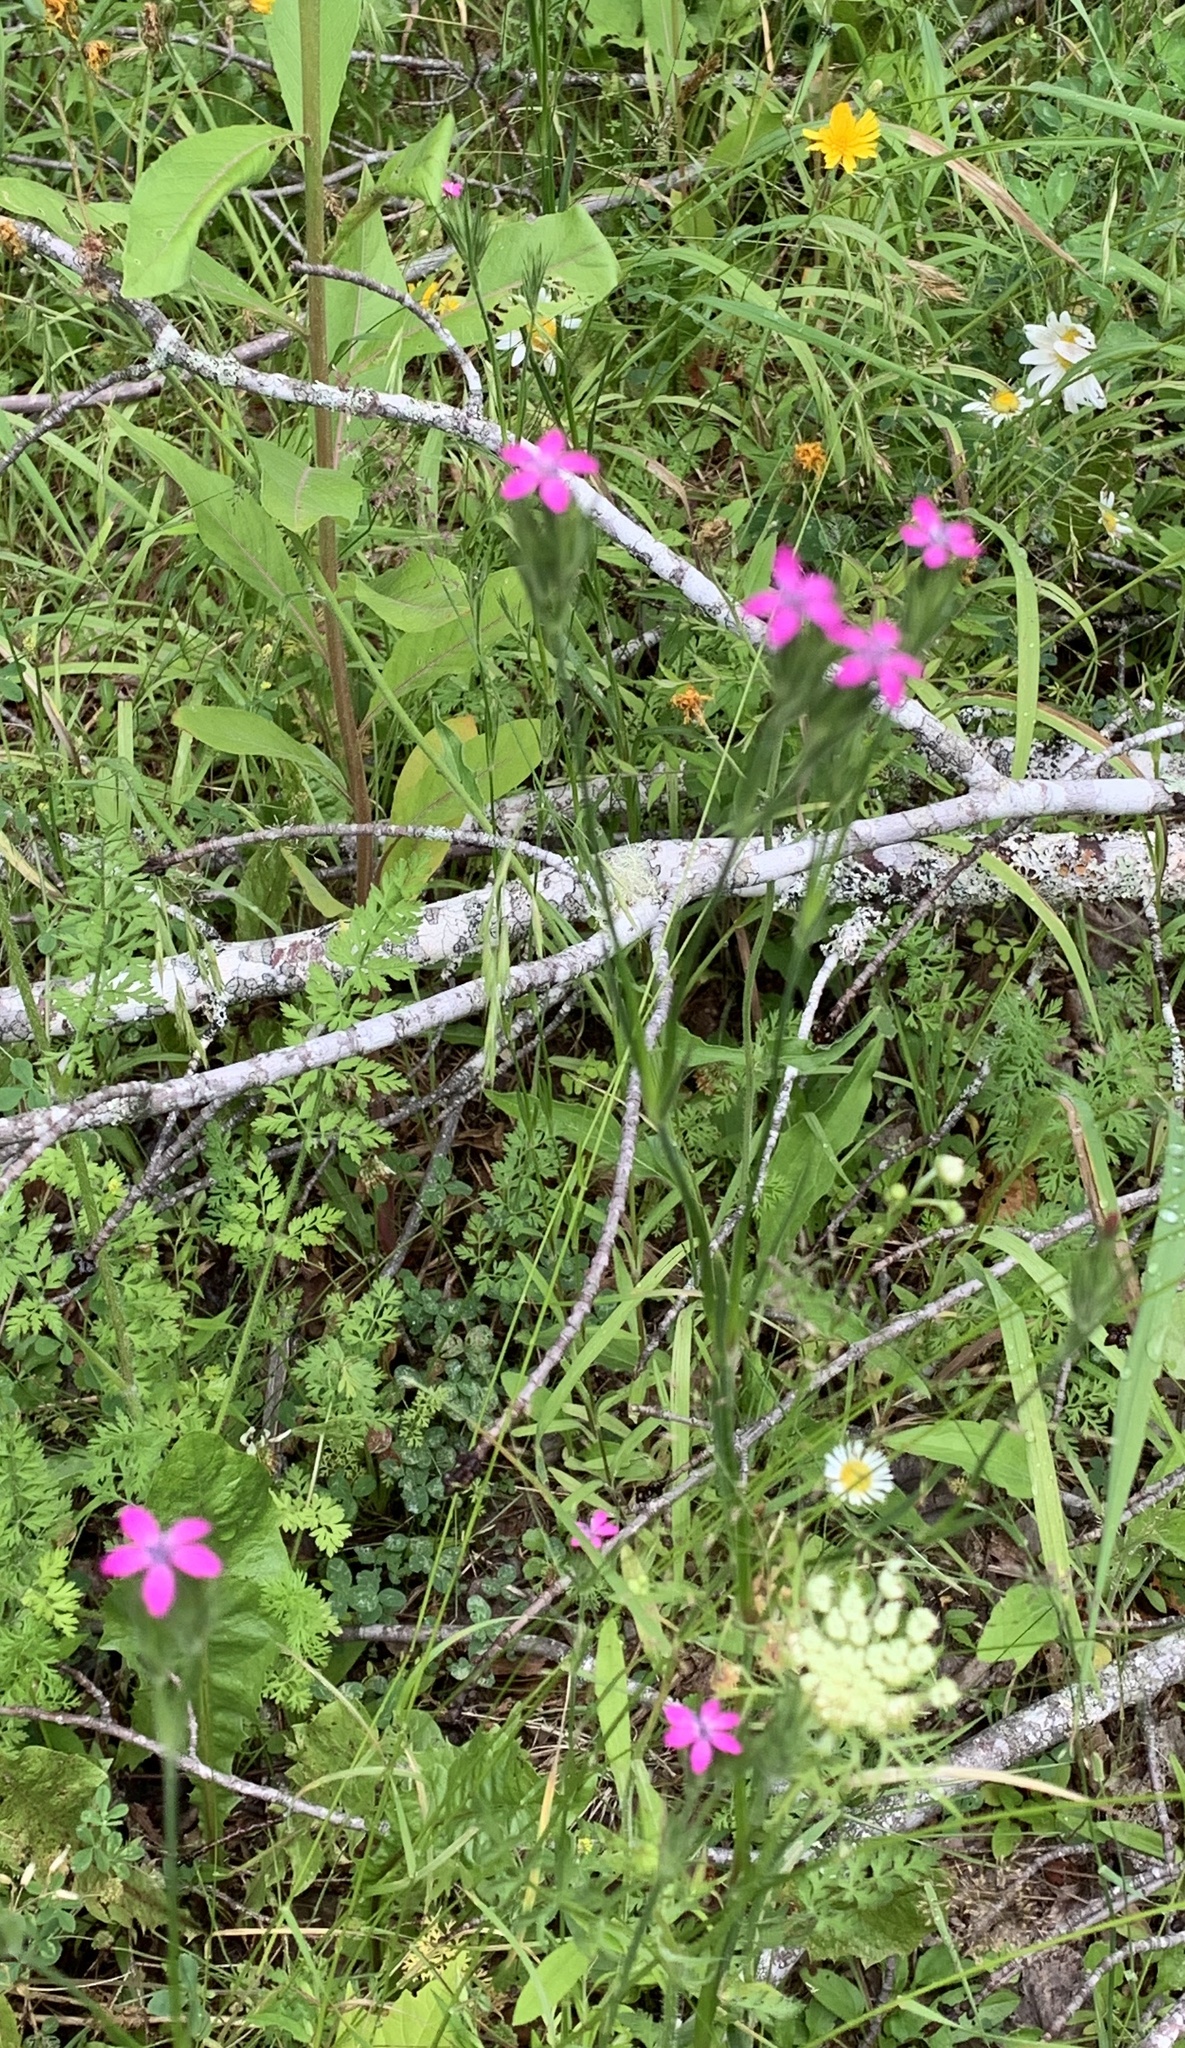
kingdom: Plantae
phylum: Tracheophyta
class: Magnoliopsida
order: Caryophyllales
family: Caryophyllaceae
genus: Dianthus
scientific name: Dianthus armeria
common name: Deptford pink
